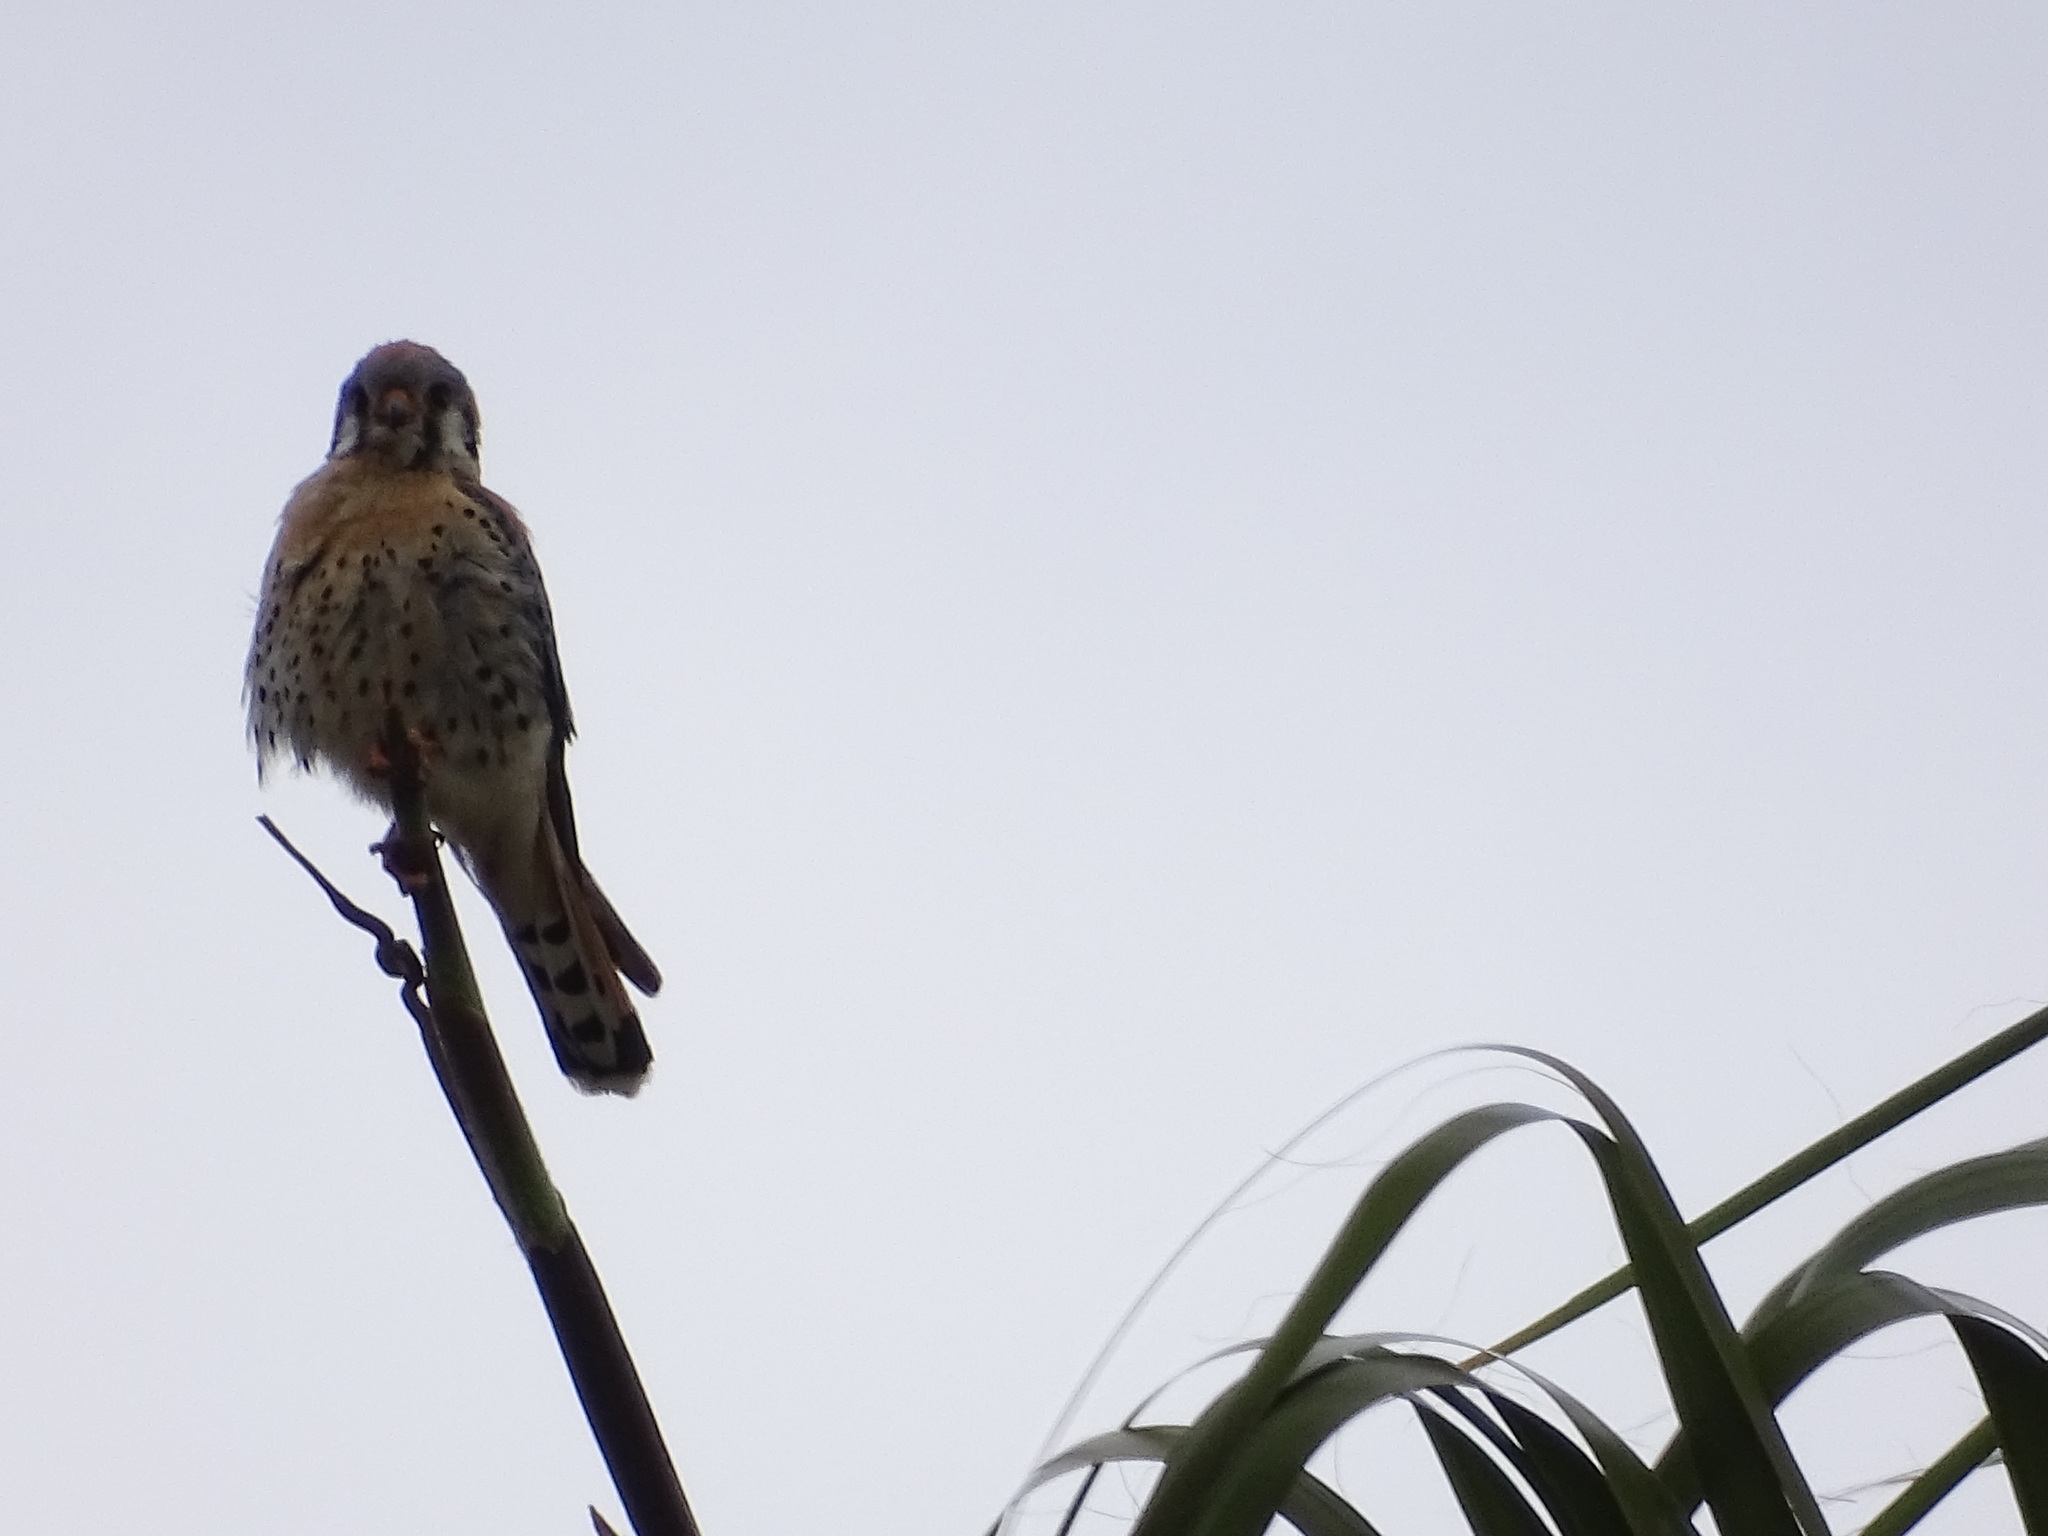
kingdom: Animalia
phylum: Chordata
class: Aves
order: Falconiformes
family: Falconidae
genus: Falco
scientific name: Falco sparverius
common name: American kestrel
